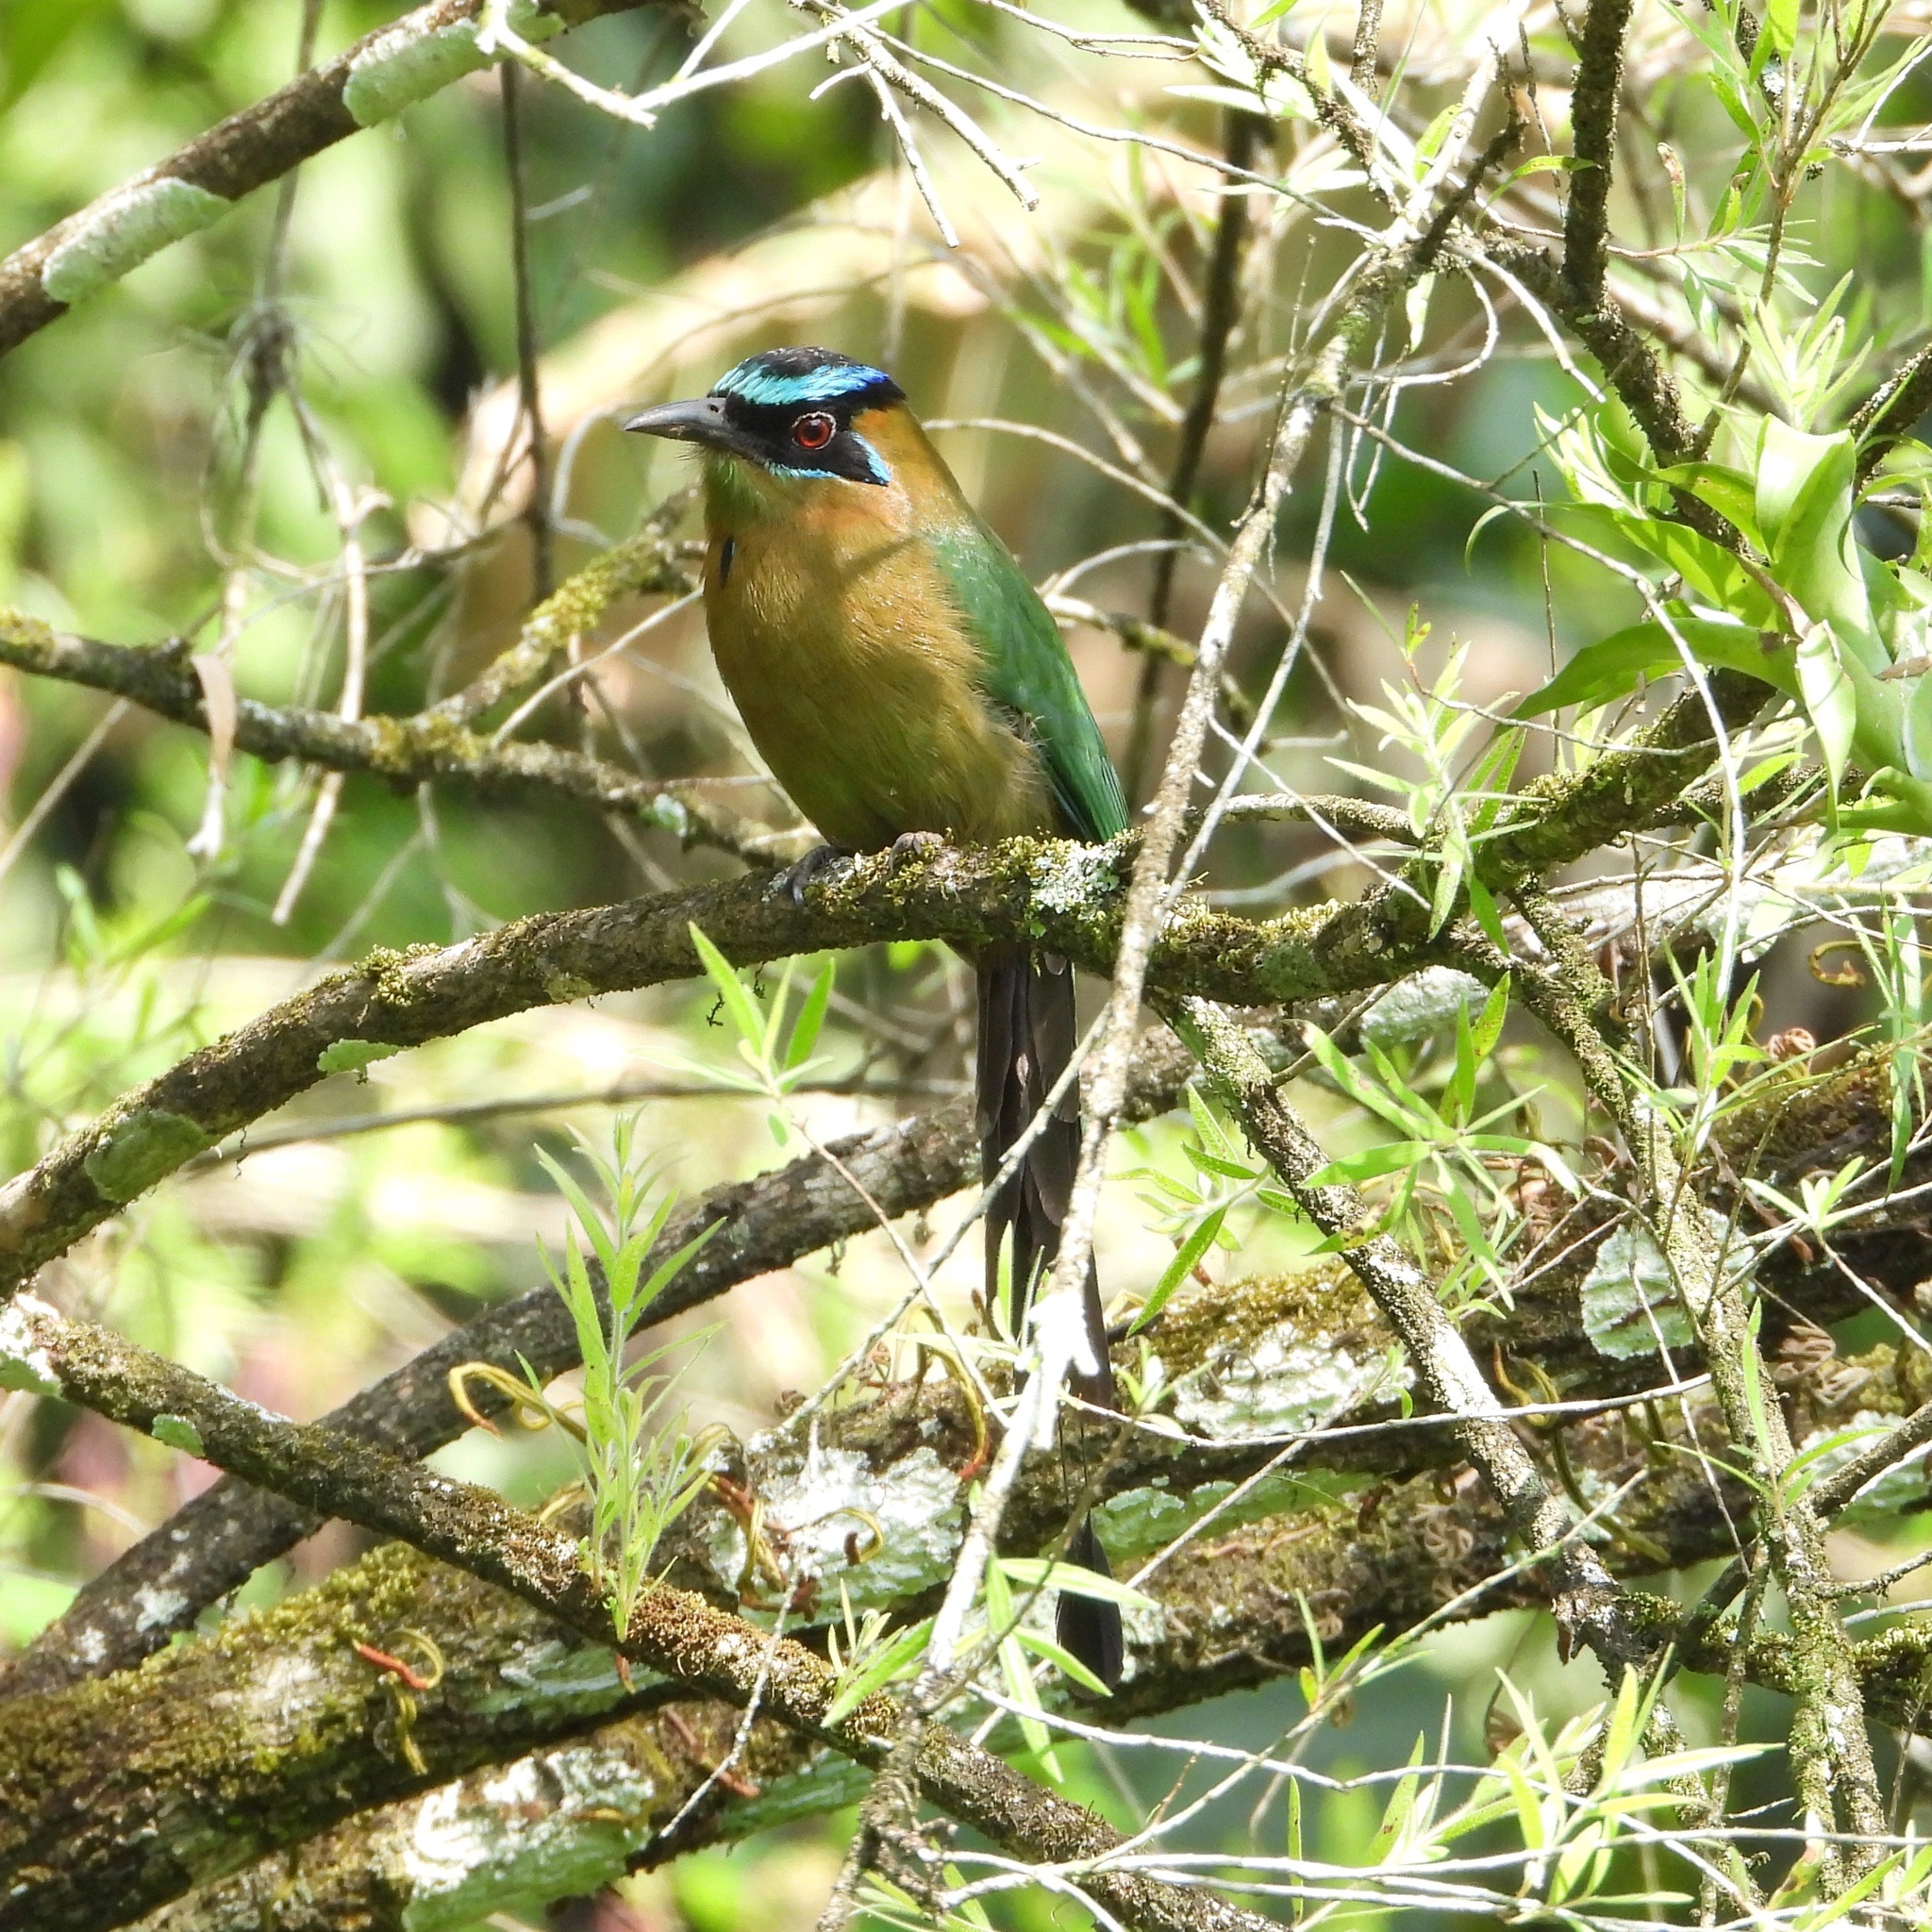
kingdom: Animalia
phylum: Chordata
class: Aves
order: Coraciiformes
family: Momotidae
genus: Momotus
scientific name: Momotus lessonii
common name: Lesson's motmot
